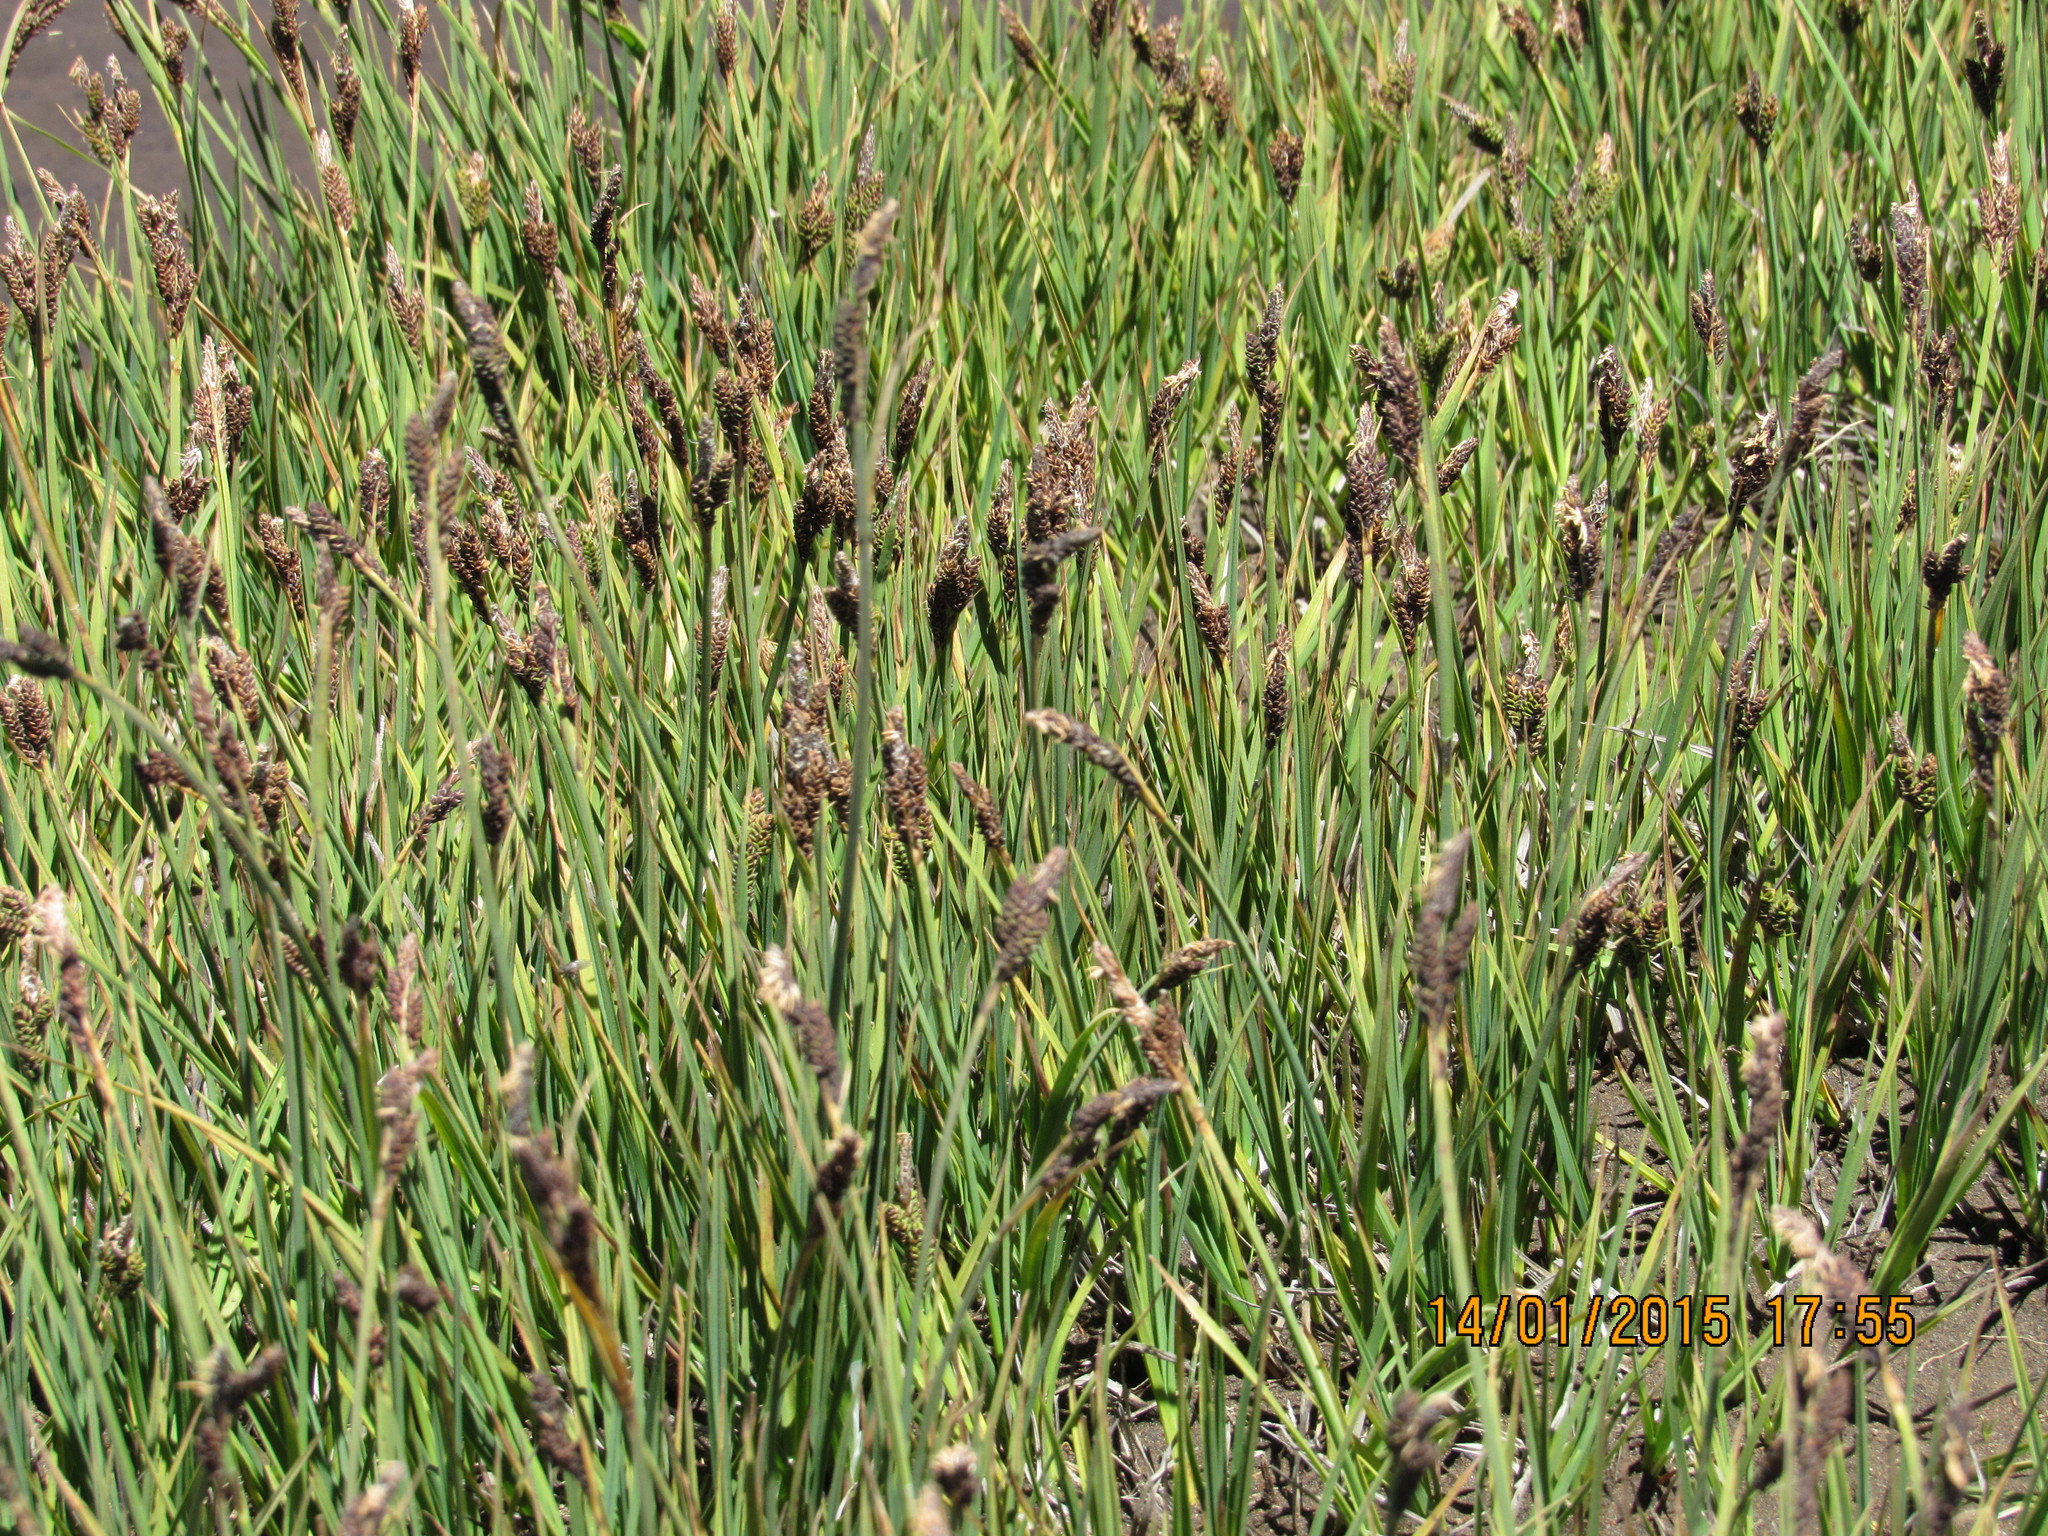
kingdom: Plantae
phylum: Tracheophyta
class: Liliopsida
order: Poales
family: Cyperaceae
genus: Carex
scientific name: Carex chillanensis
